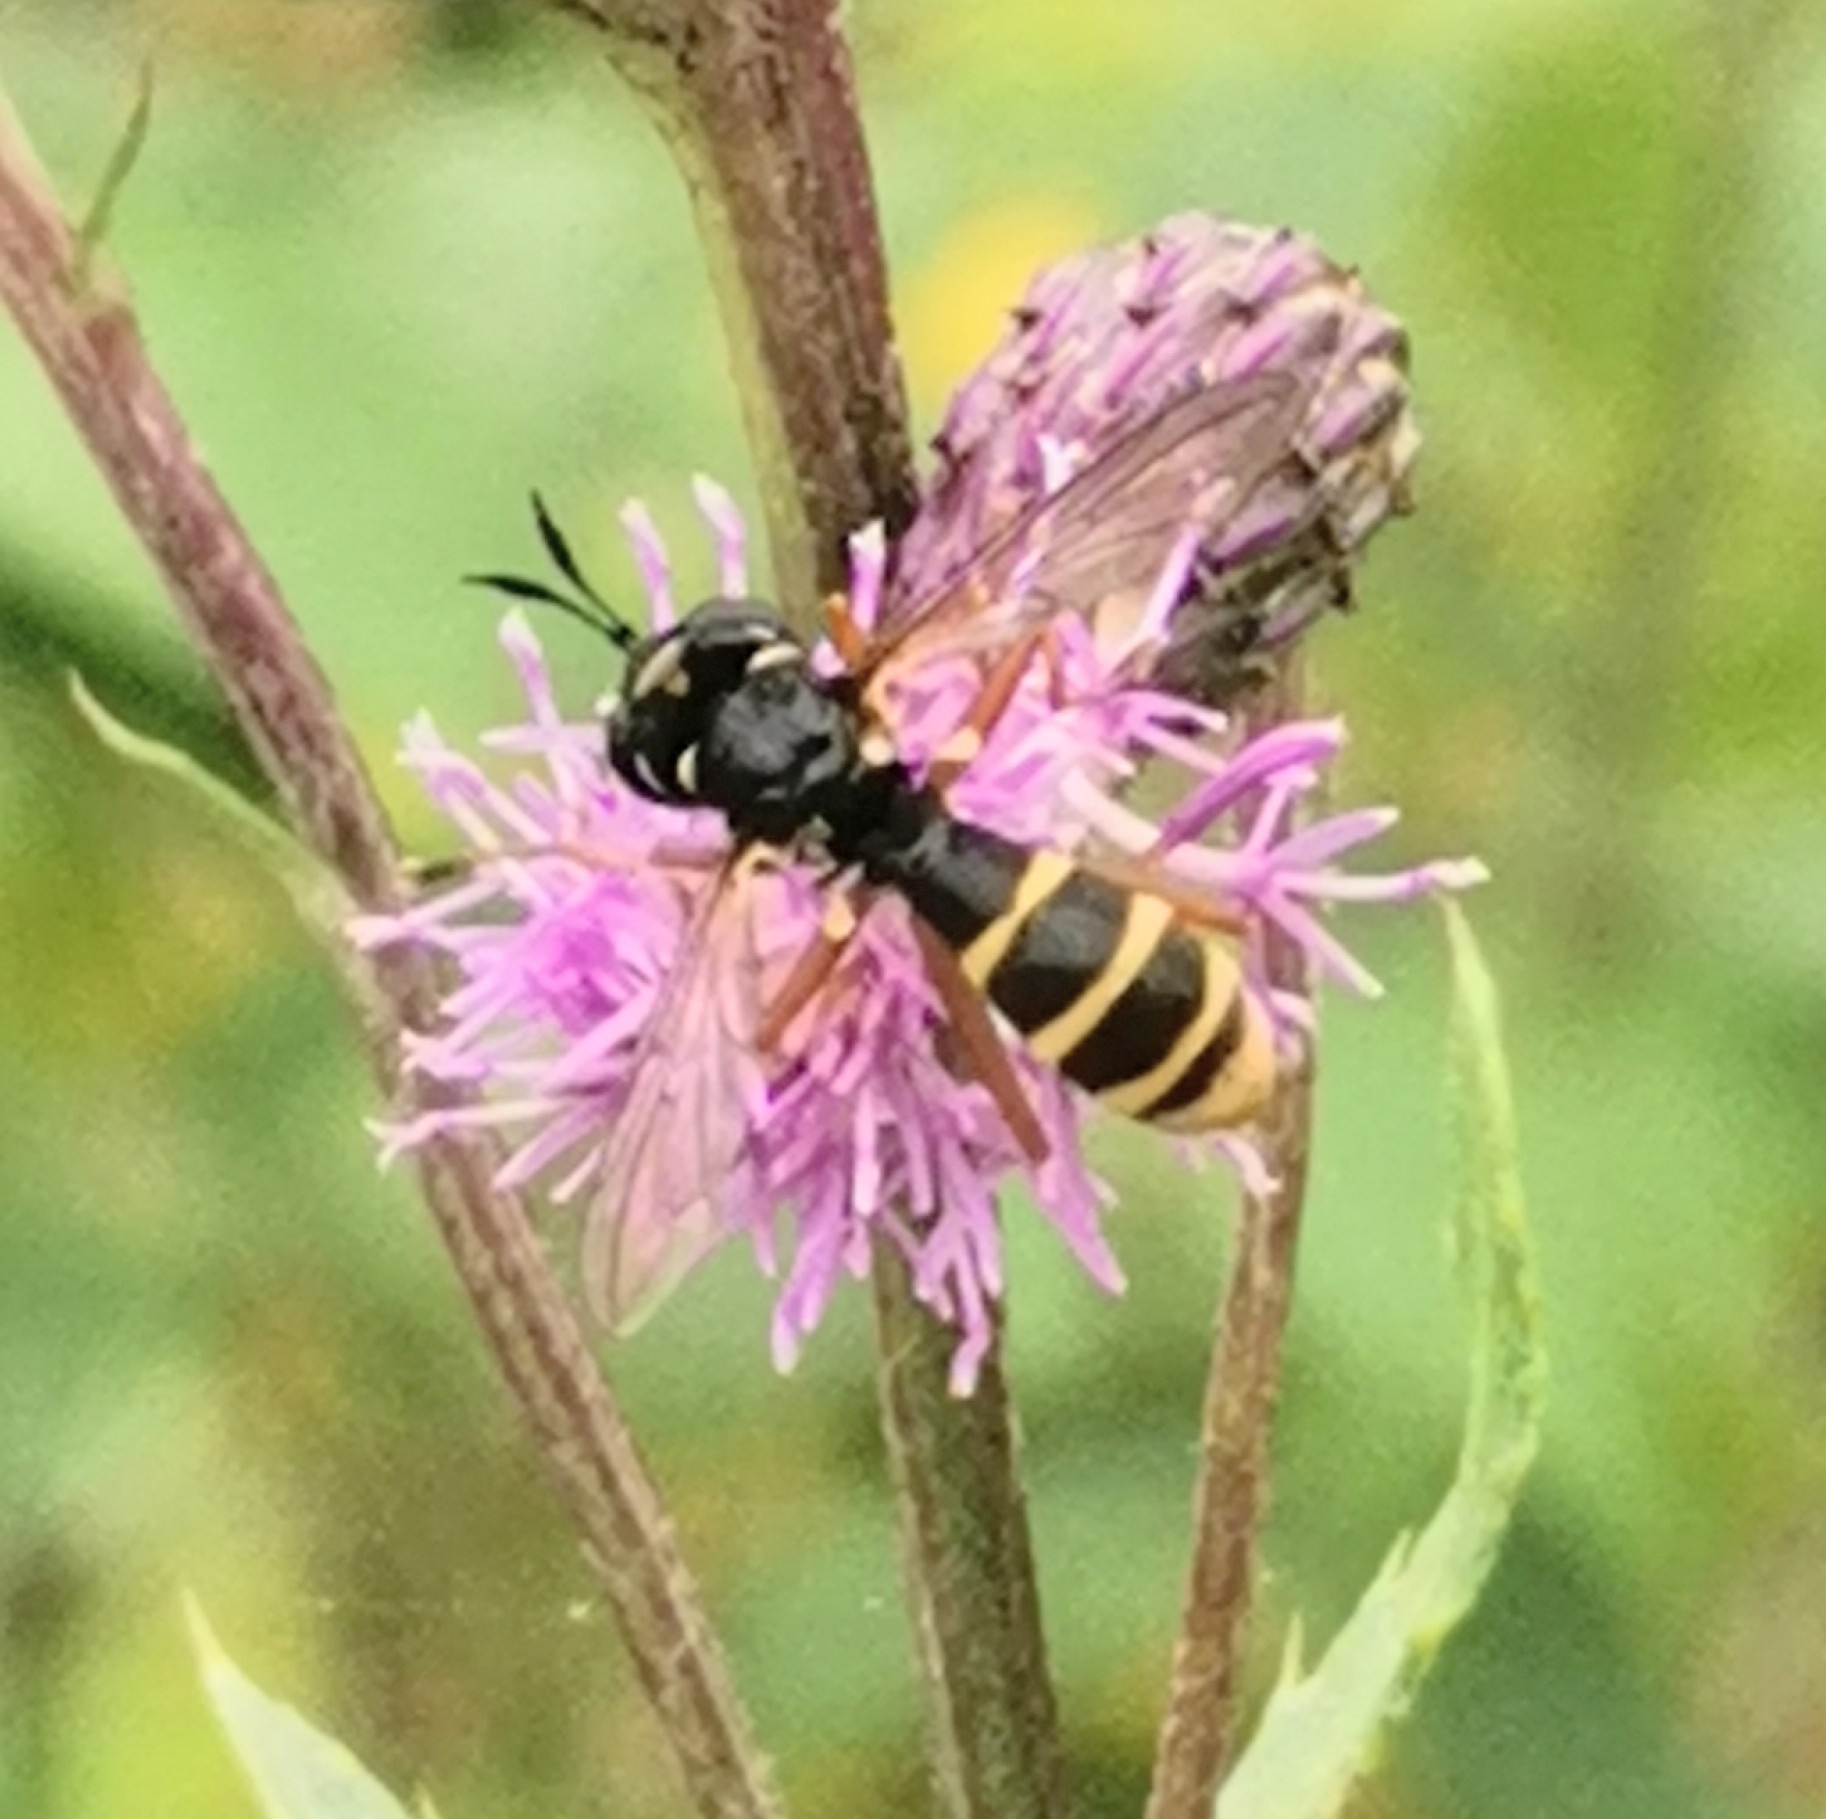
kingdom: Animalia
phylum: Arthropoda
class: Insecta
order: Diptera
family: Conopidae
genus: Conops
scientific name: Conops quadrifasciatus
